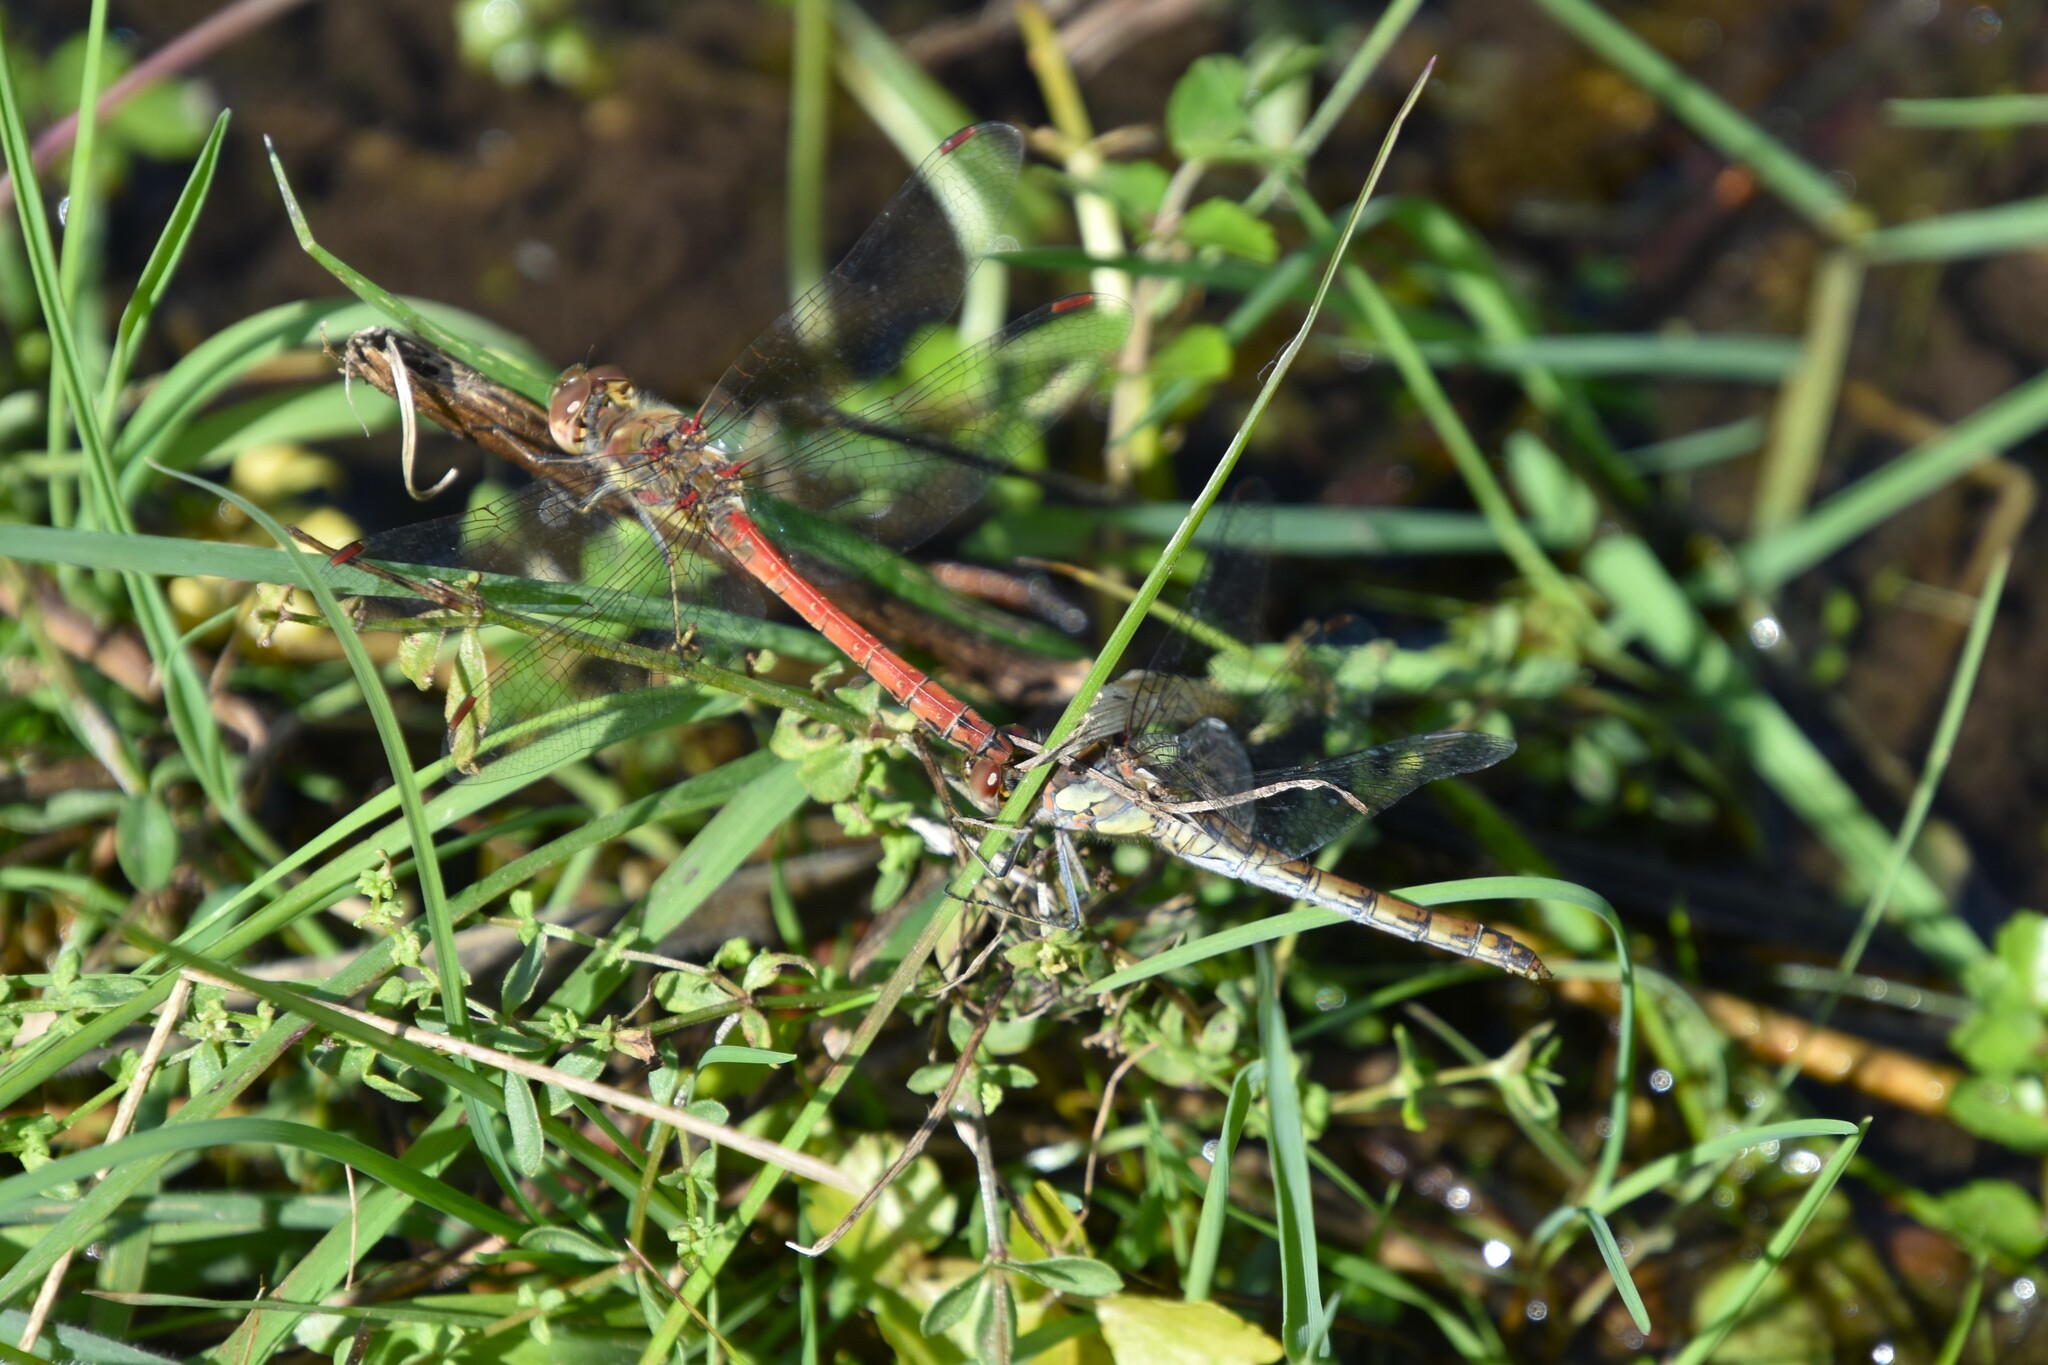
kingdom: Animalia
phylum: Arthropoda
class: Insecta
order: Odonata
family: Libellulidae
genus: Sympetrum
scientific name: Sympetrum striolatum
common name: Common darter
